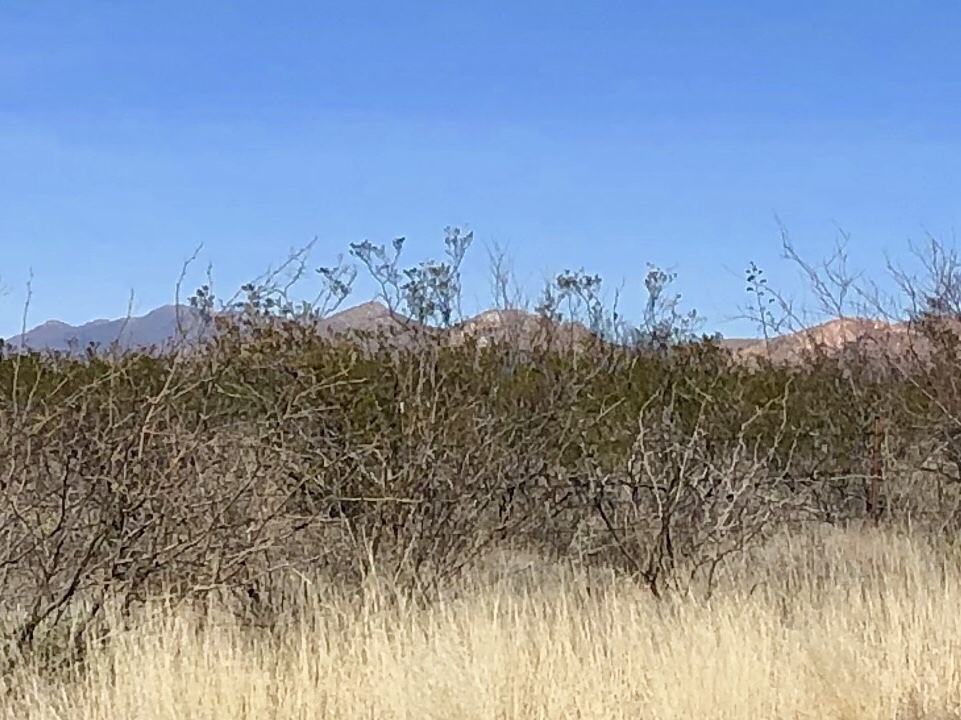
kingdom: Plantae
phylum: Tracheophyta
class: Magnoliopsida
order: Zygophyllales
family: Zygophyllaceae
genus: Larrea
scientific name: Larrea tridentata
